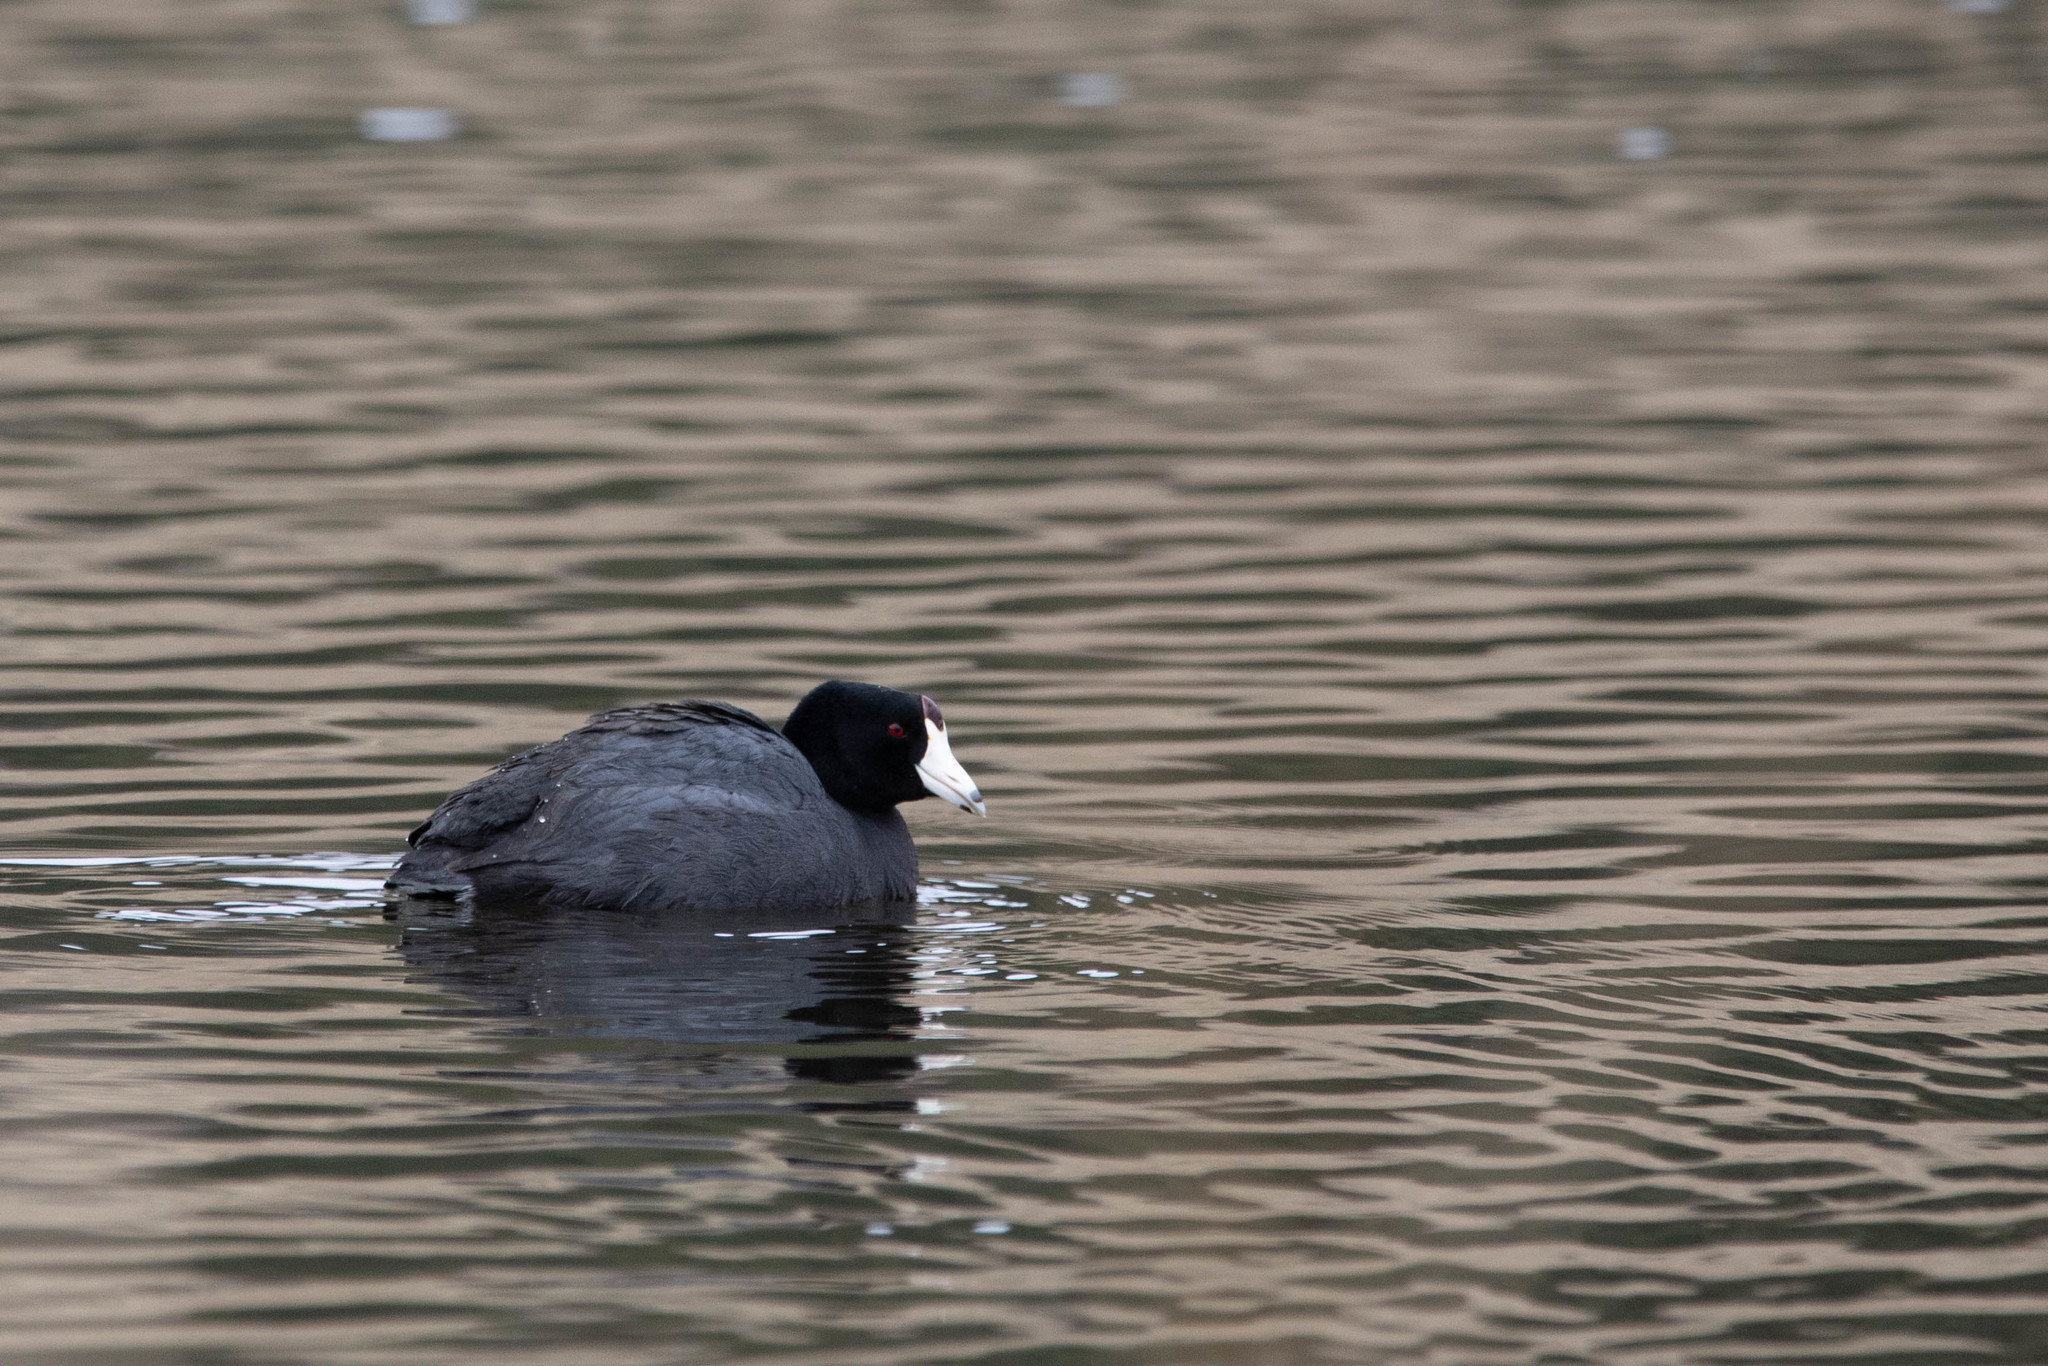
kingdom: Animalia
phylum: Chordata
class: Aves
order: Gruiformes
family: Rallidae
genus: Fulica
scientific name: Fulica americana
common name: American coot
